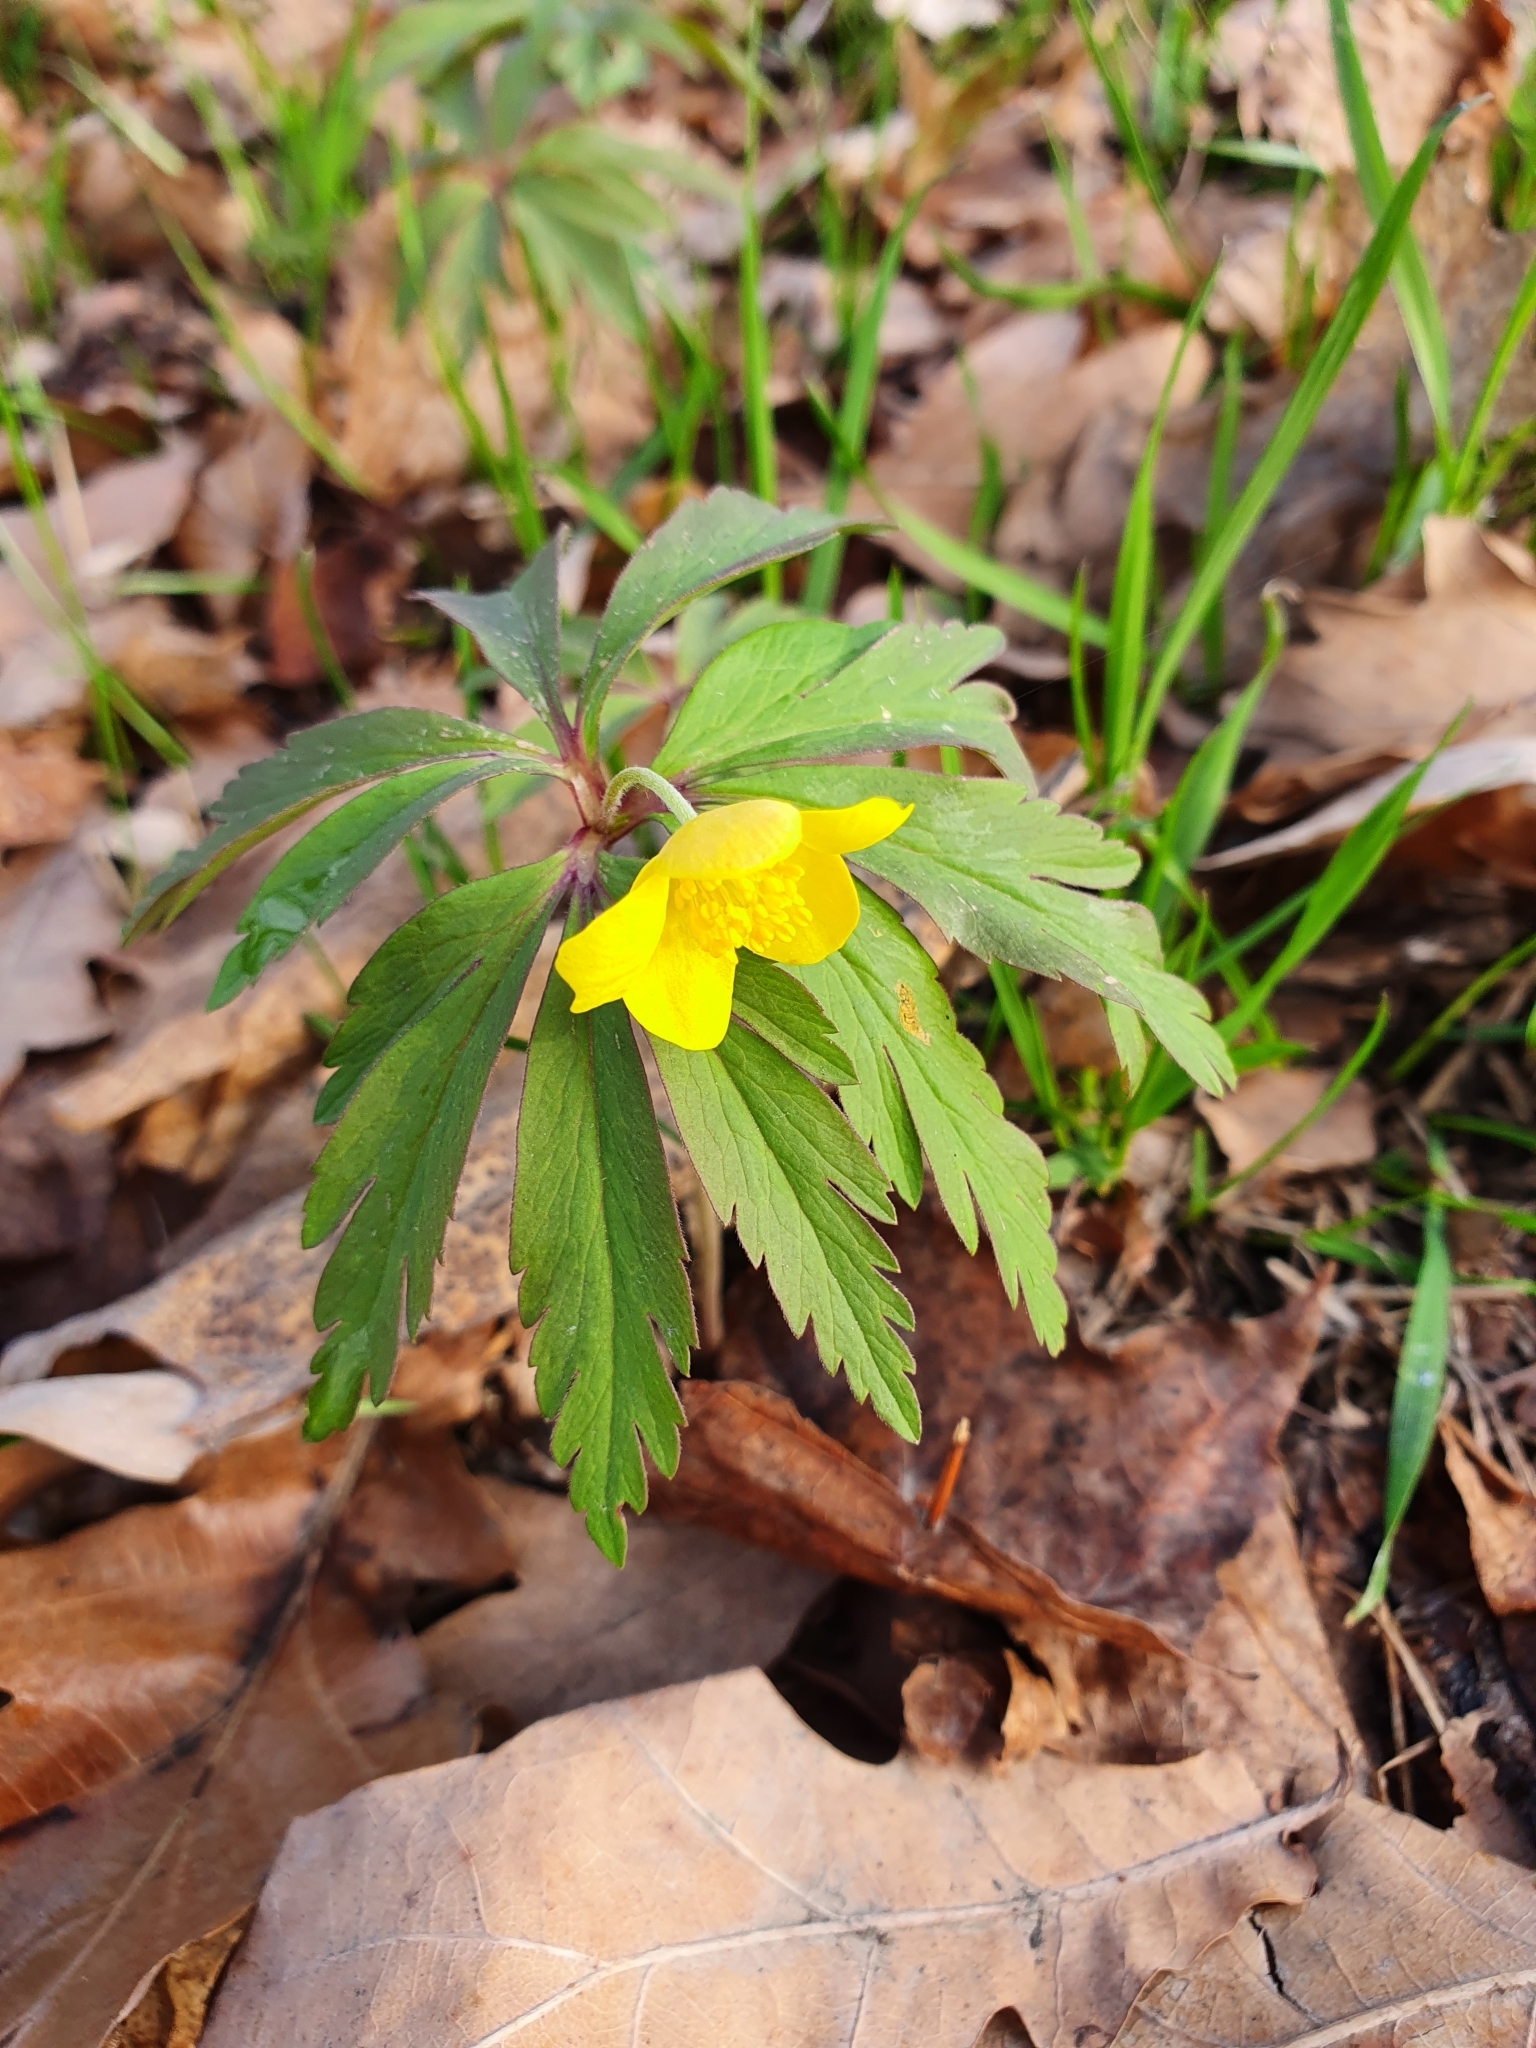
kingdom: Plantae
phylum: Tracheophyta
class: Magnoliopsida
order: Ranunculales
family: Ranunculaceae
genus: Anemone
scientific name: Anemone ranunculoides
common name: Yellow anemone
